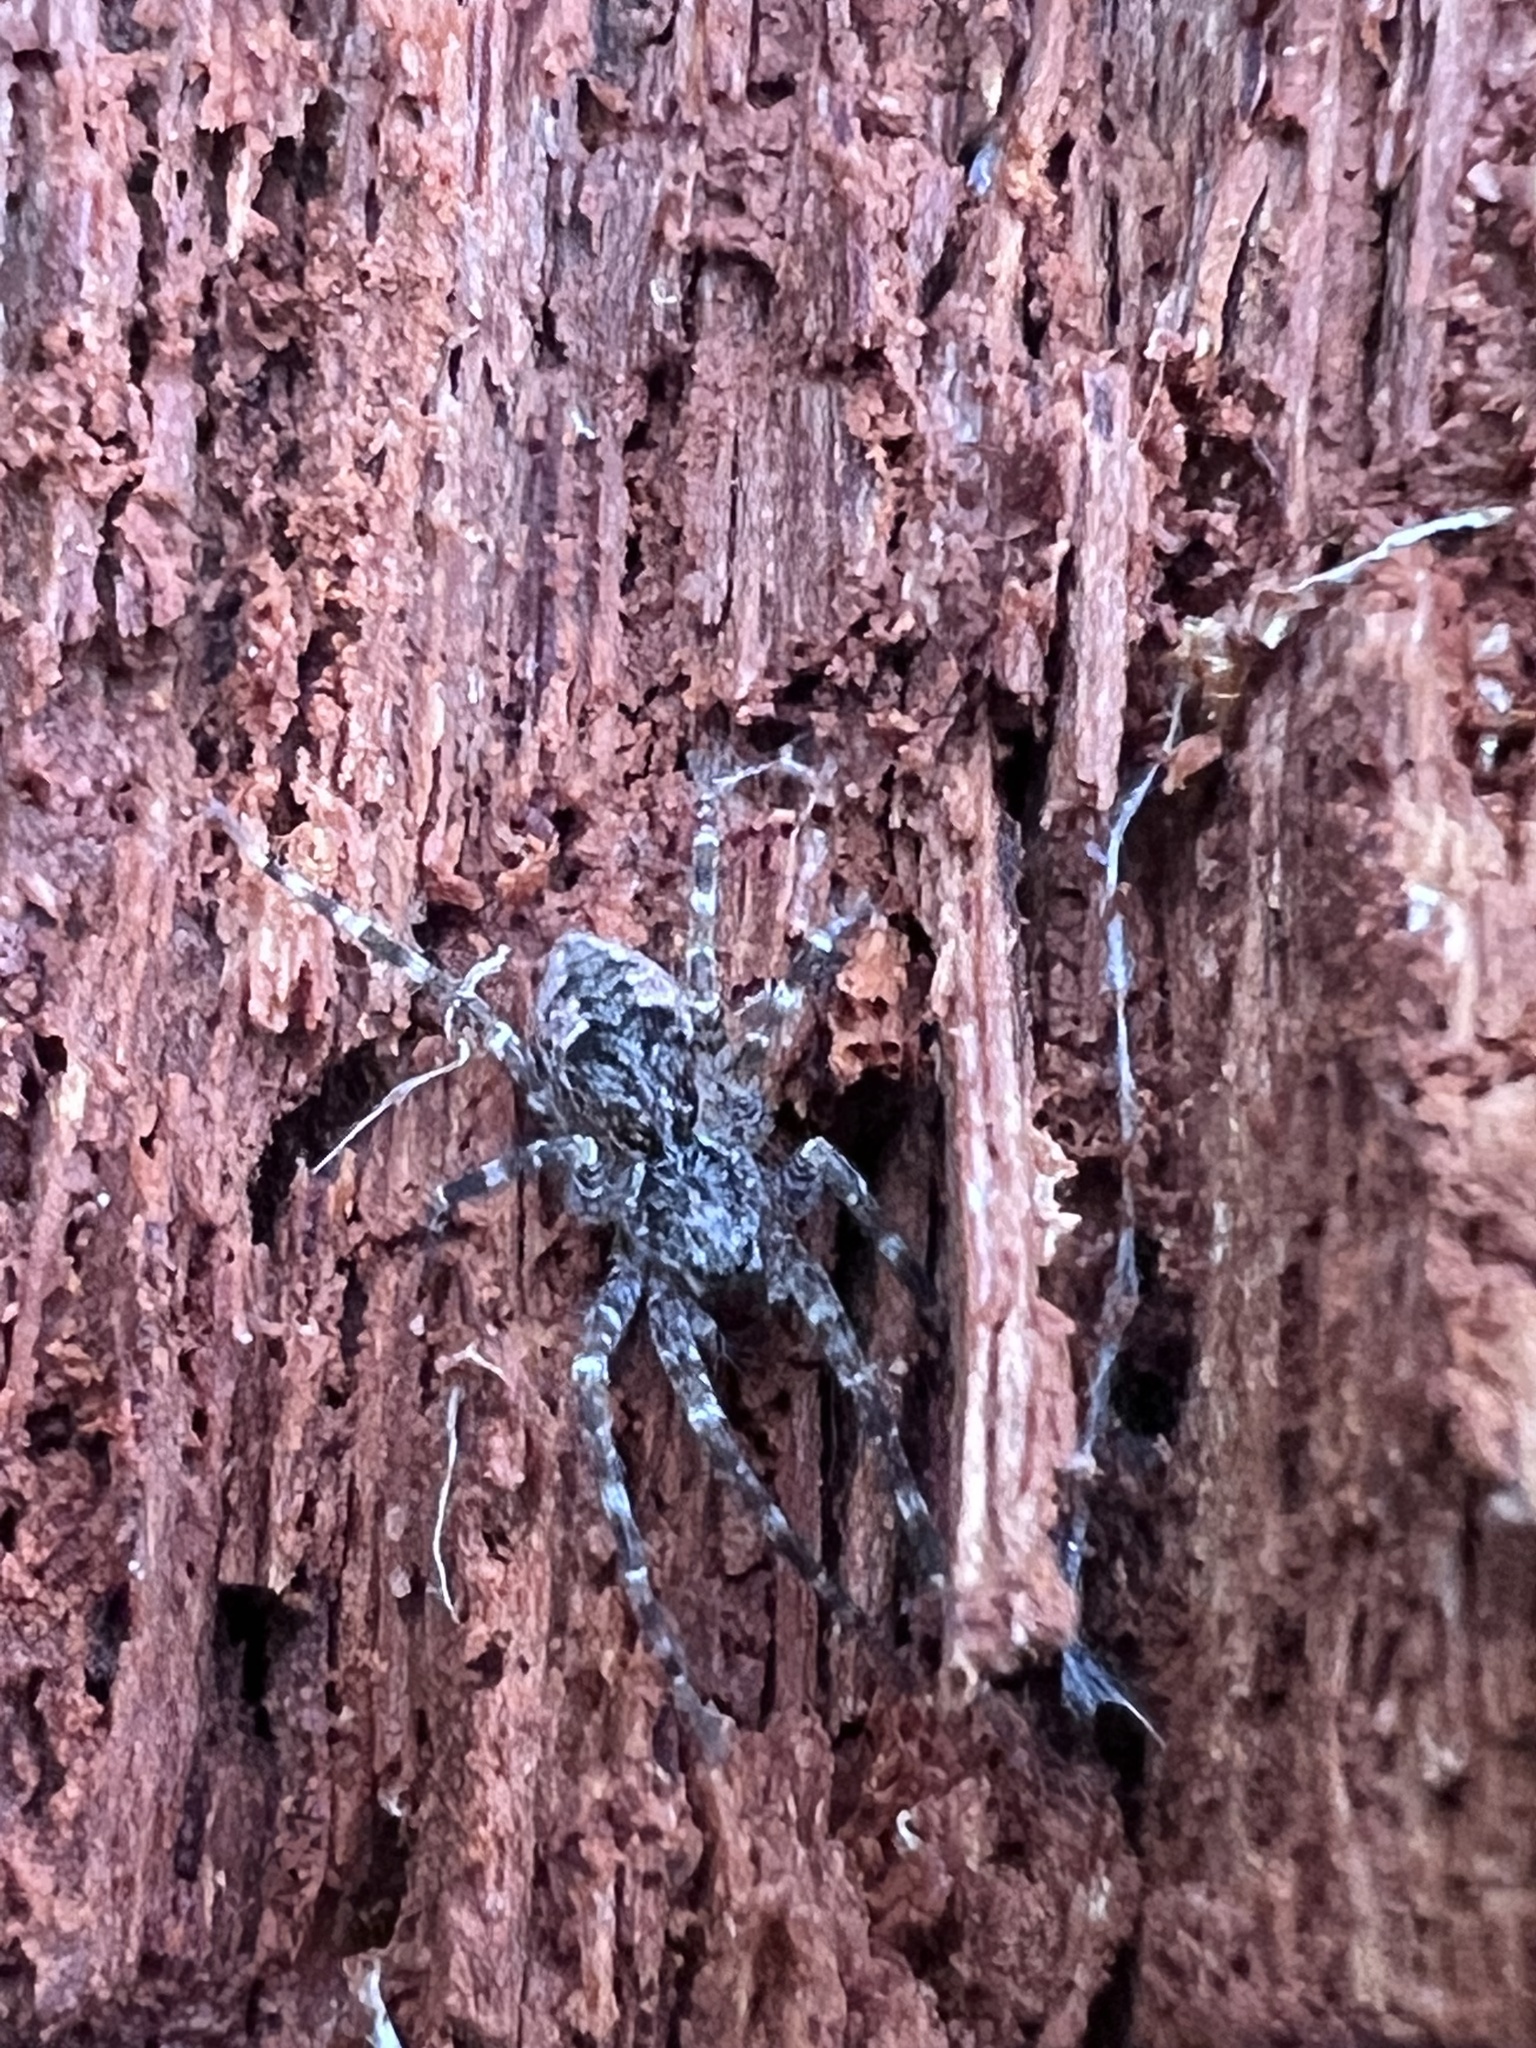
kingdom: Animalia
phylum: Arthropoda
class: Arachnida
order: Araneae
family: Pisauridae
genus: Dolomedes
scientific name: Dolomedes tenebrosus
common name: Dark fishing spider
